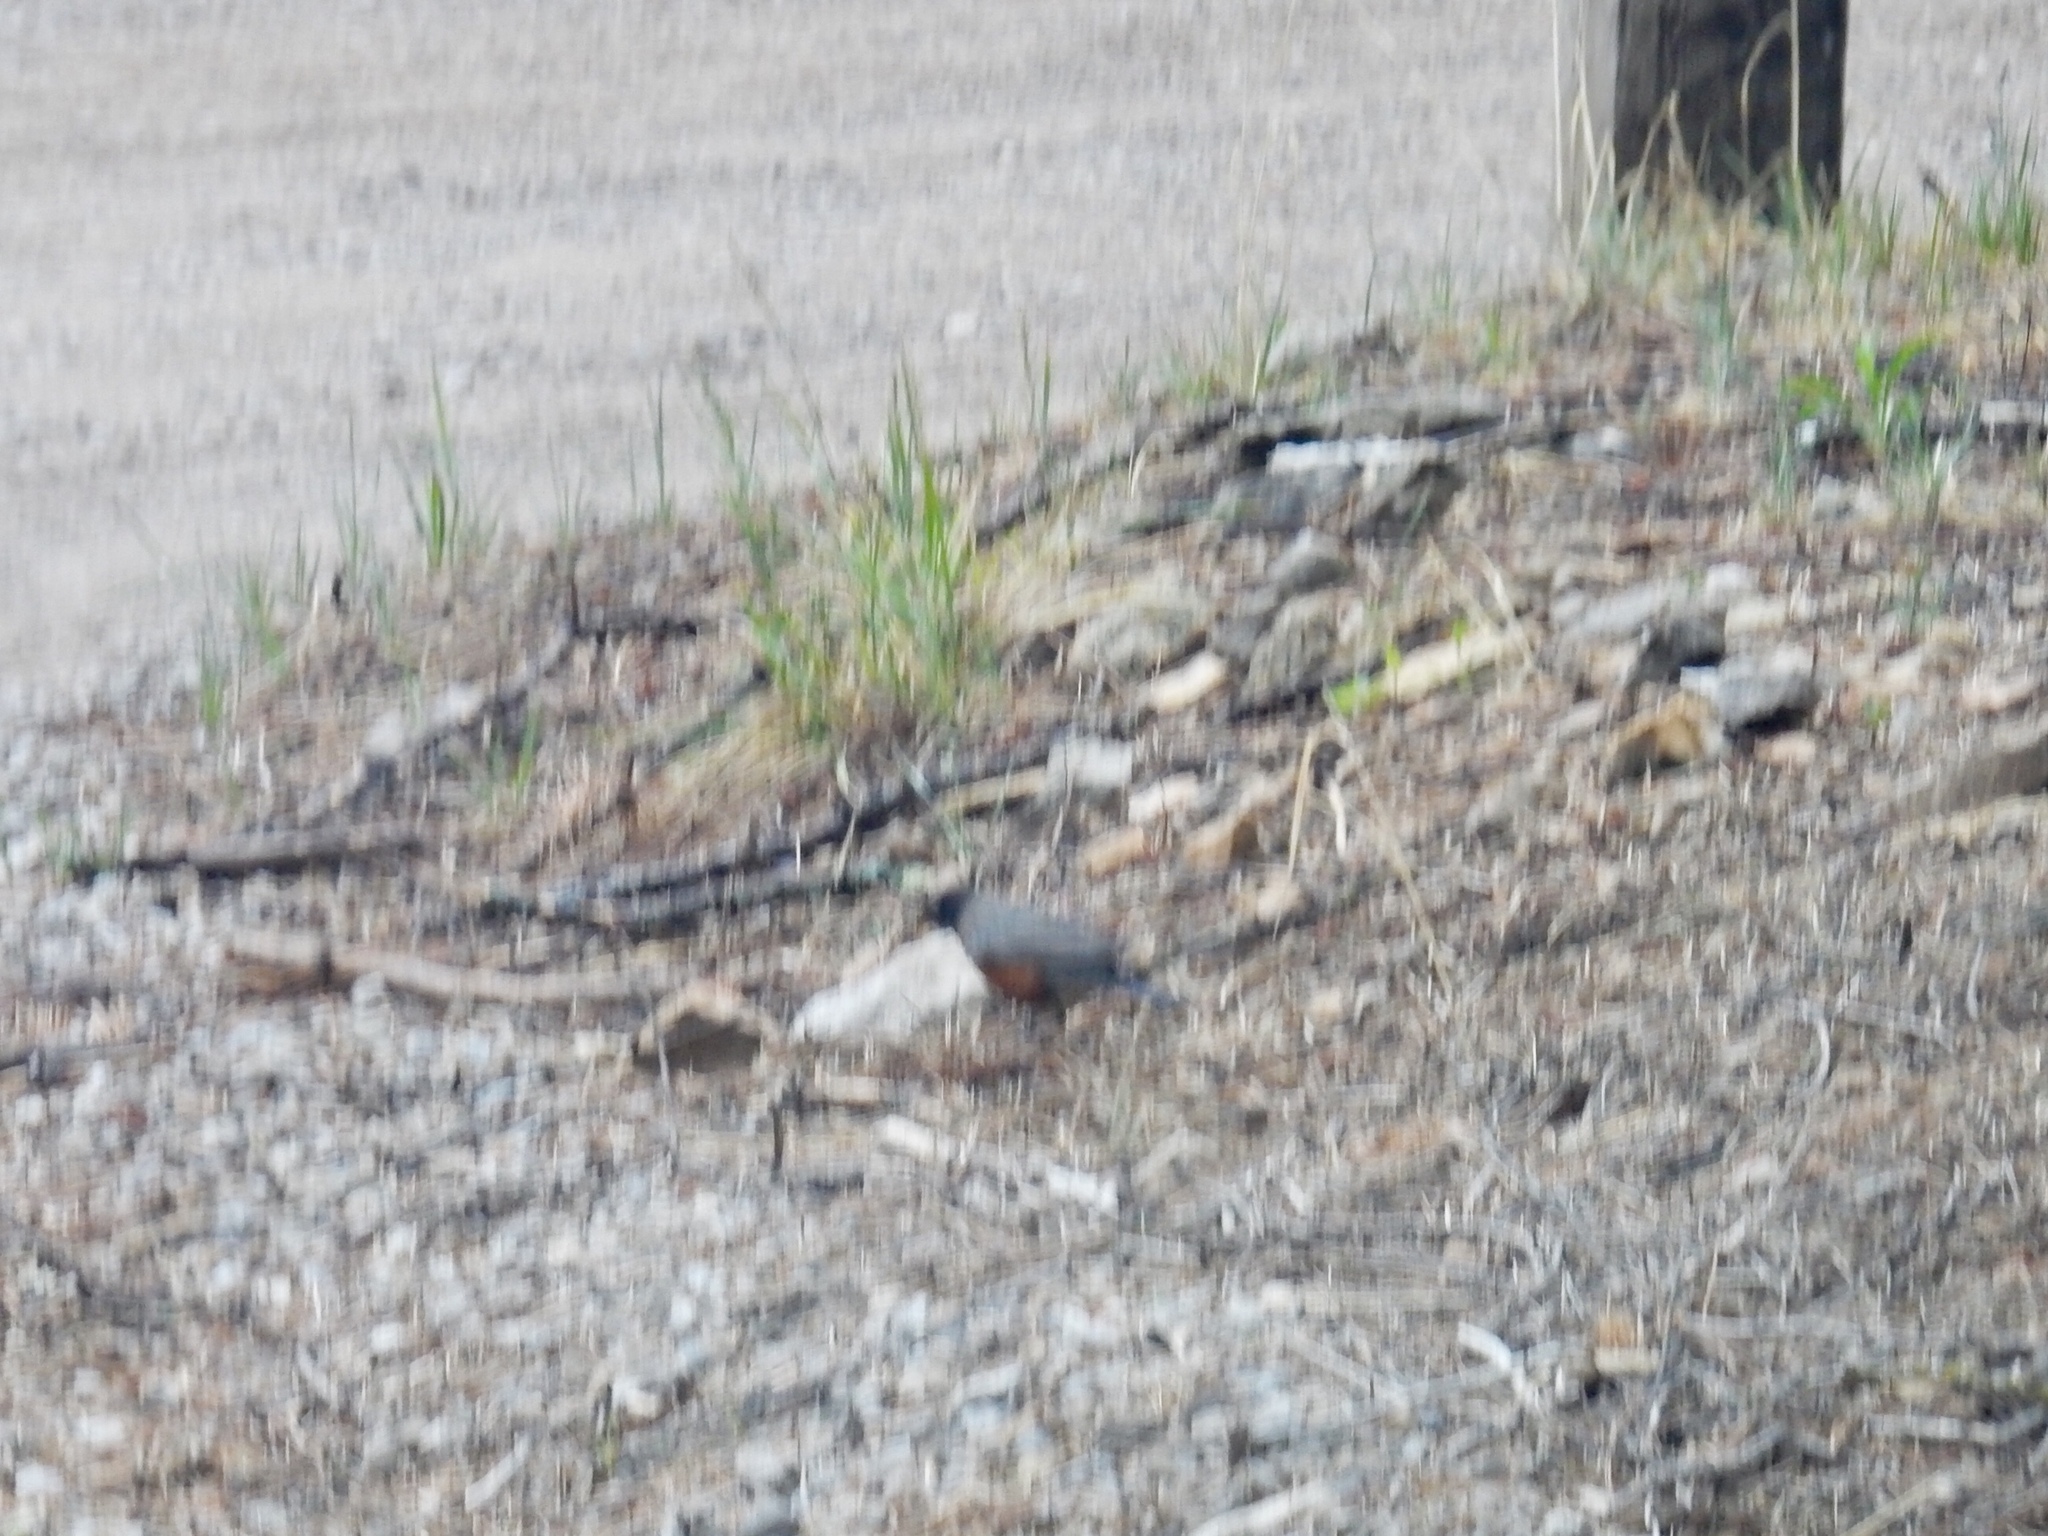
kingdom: Animalia
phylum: Chordata
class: Aves
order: Passeriformes
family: Turdidae
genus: Turdus
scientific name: Turdus migratorius
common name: American robin
